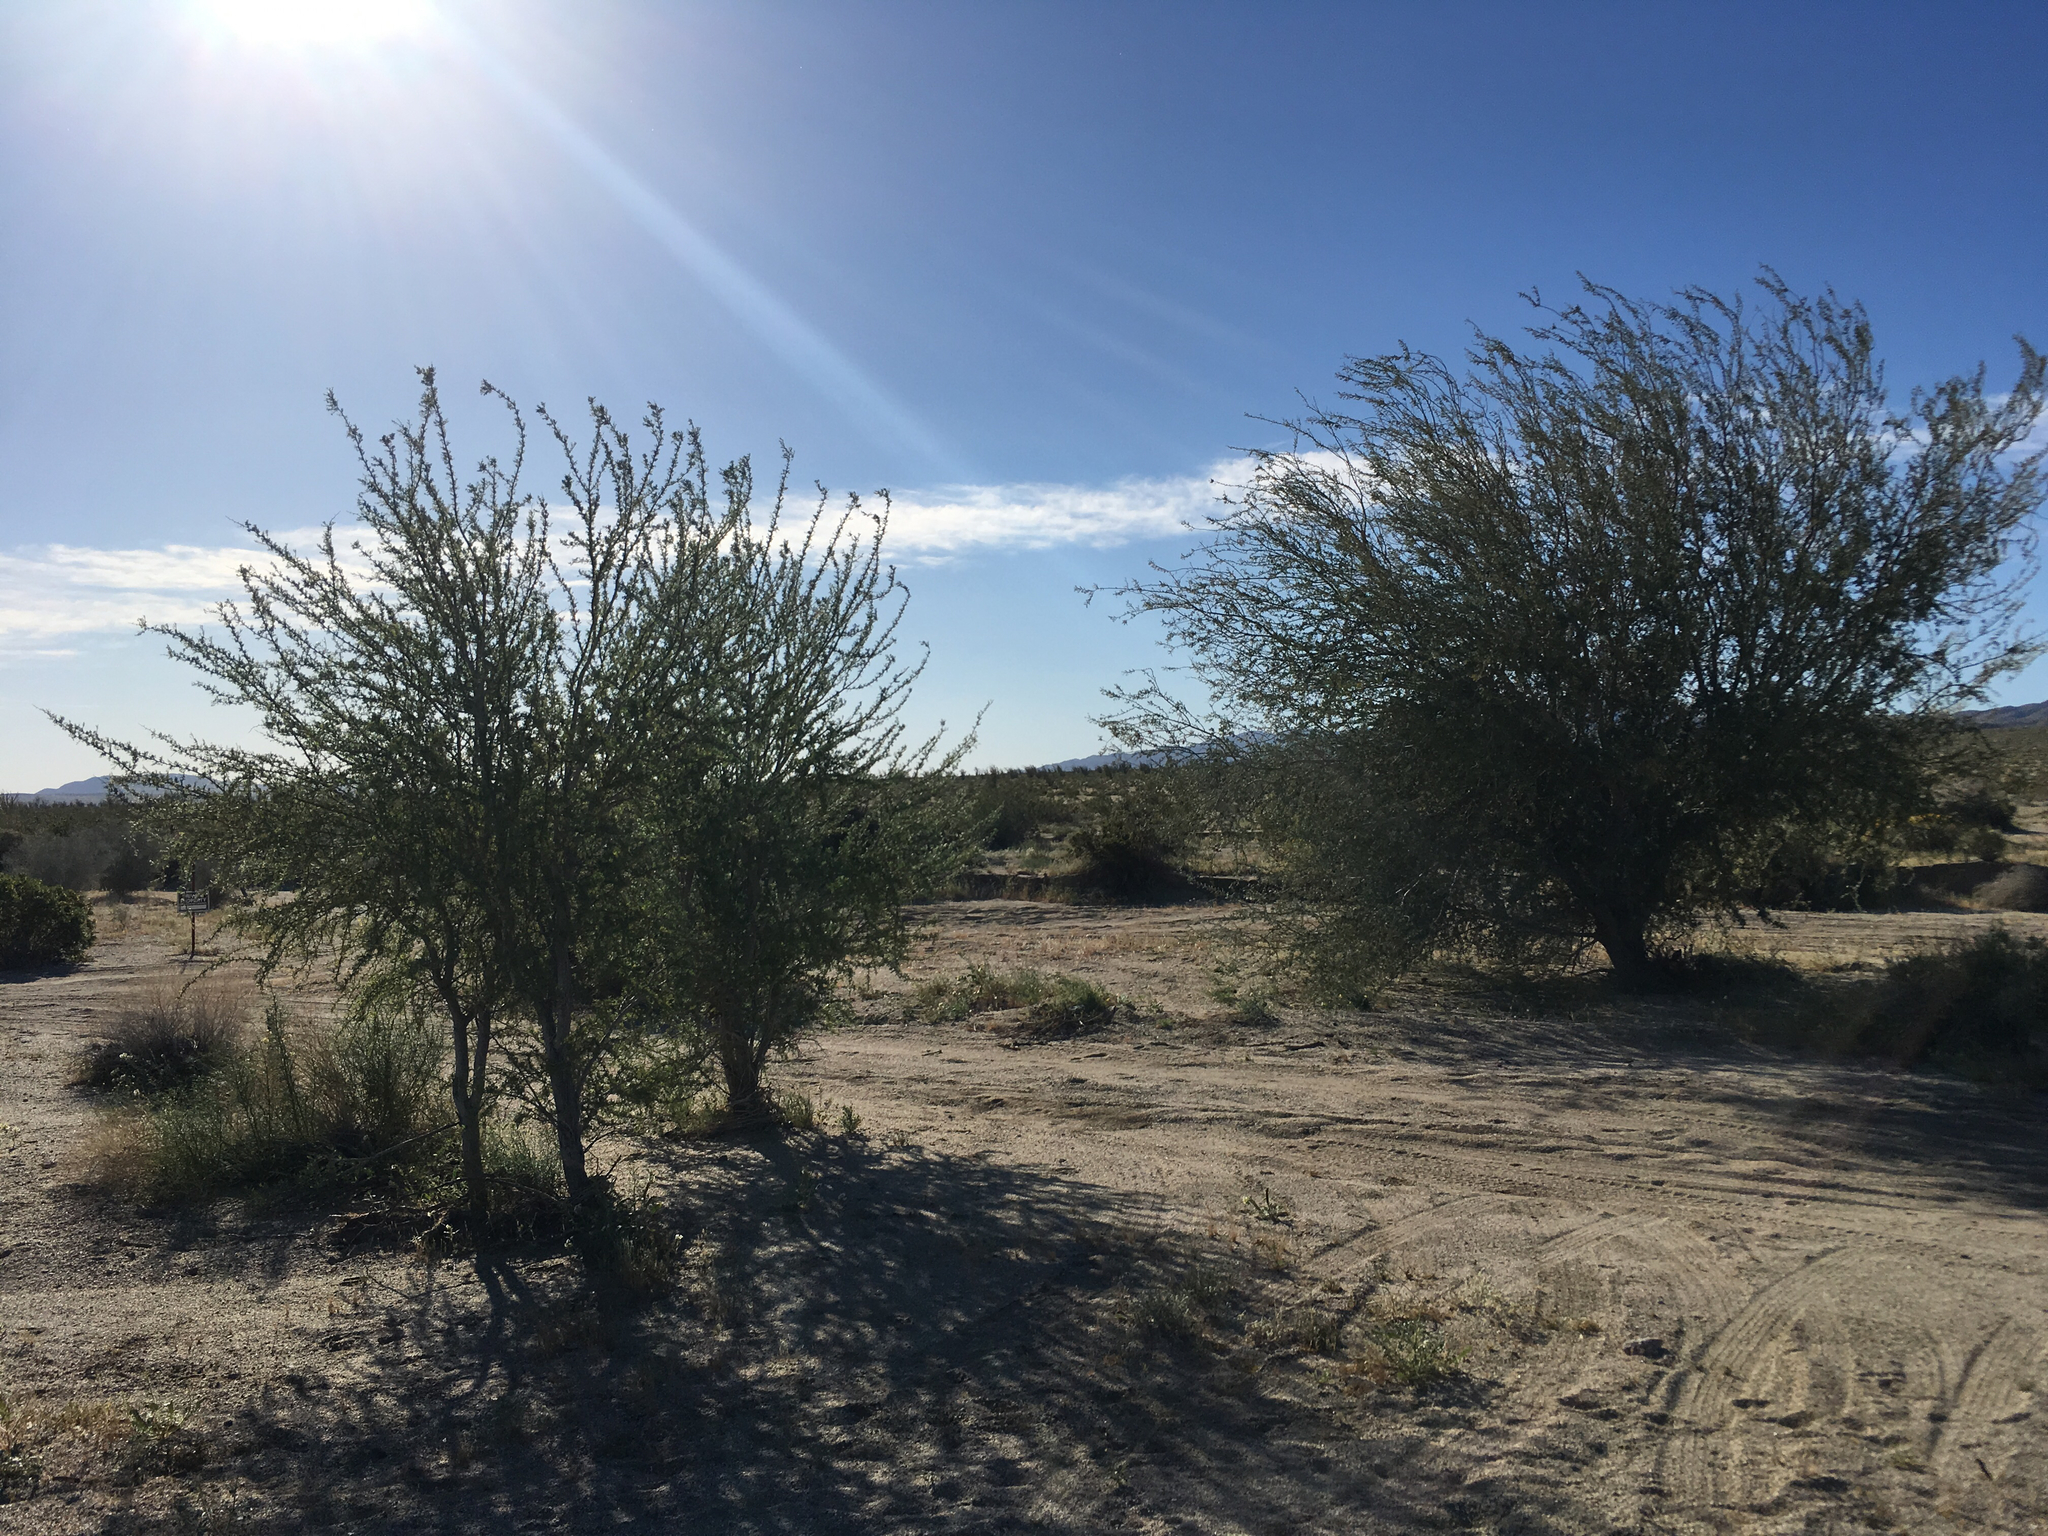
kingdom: Plantae
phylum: Tracheophyta
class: Magnoliopsida
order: Fabales
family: Fabaceae
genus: Olneya
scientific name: Olneya tesota
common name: Desert ironwood
